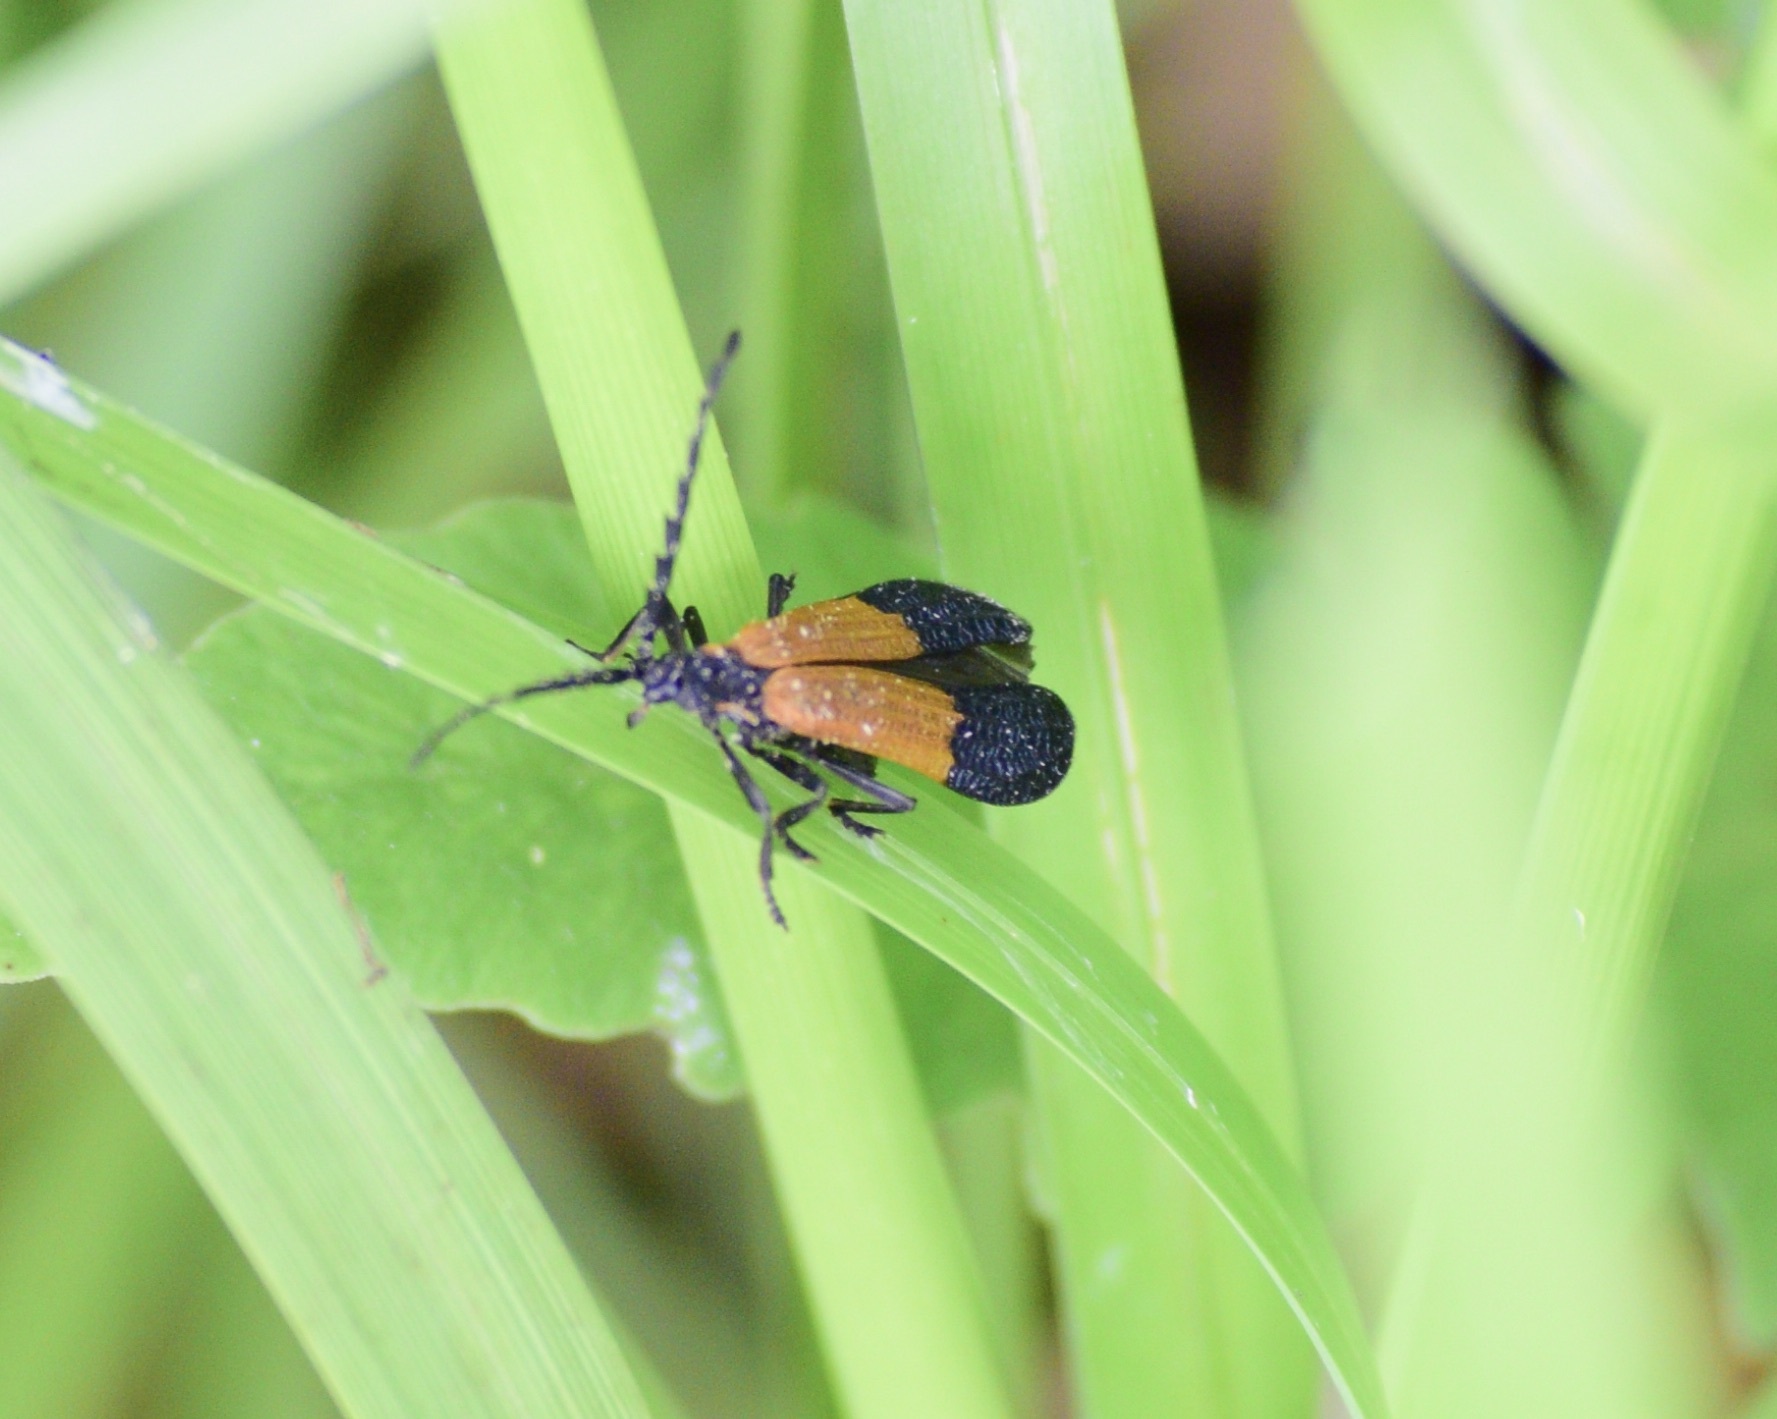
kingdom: Animalia
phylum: Arthropoda
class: Insecta
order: Coleoptera
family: Lycidae
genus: Calopteron
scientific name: Calopteron terminale
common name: End band net-winged beetle
